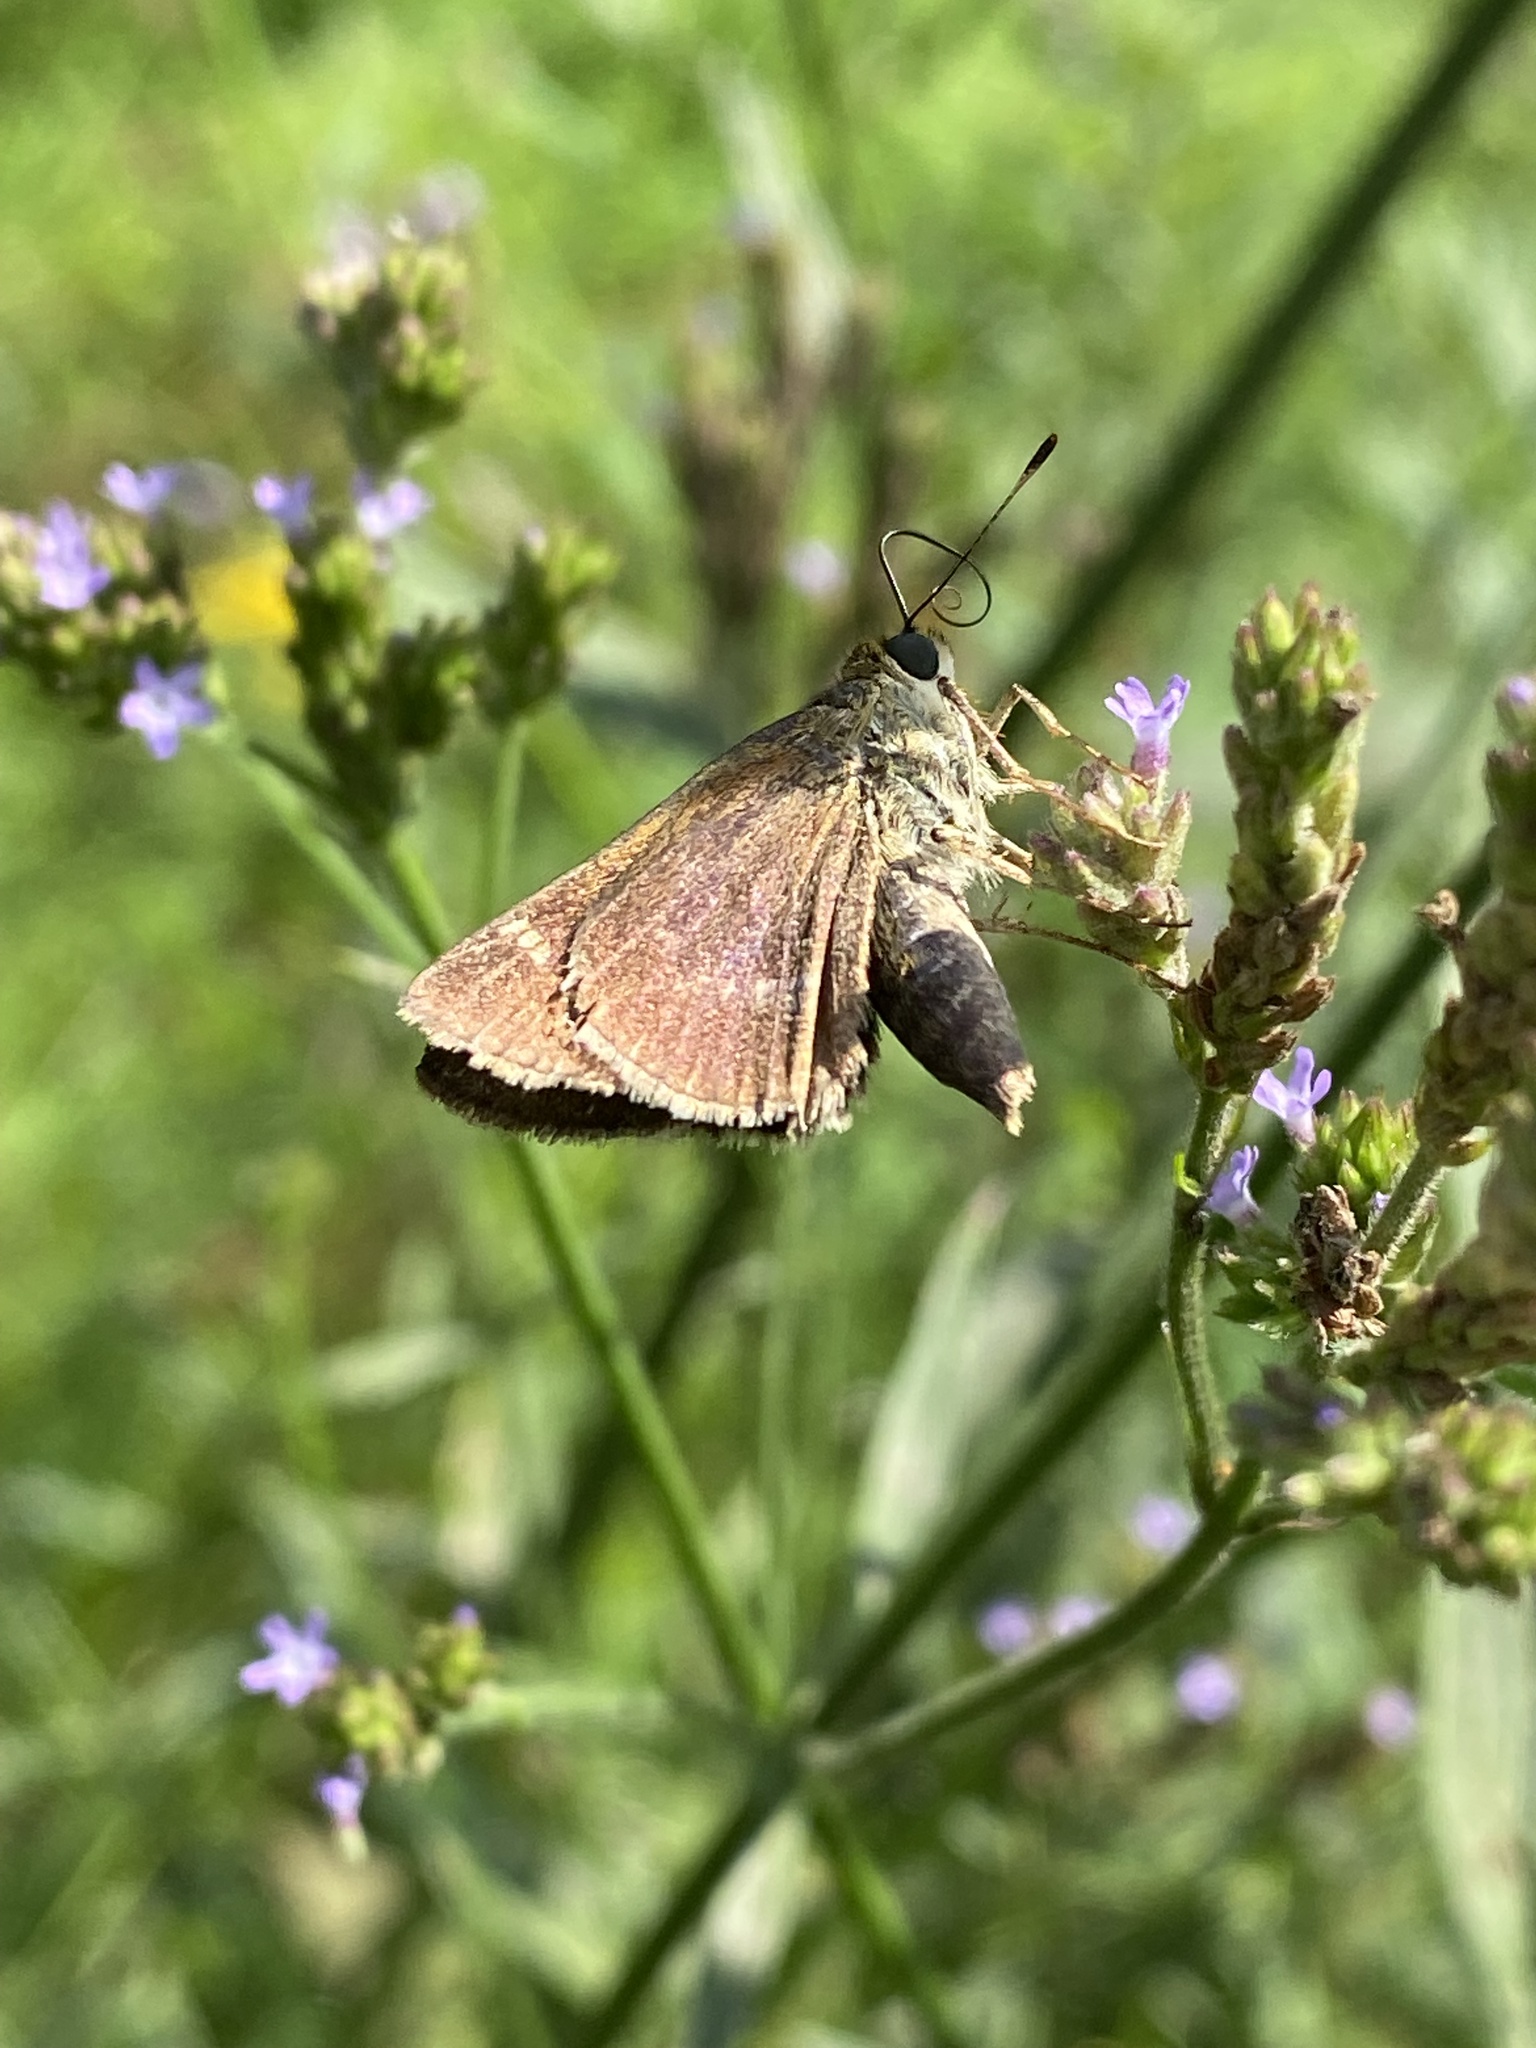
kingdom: Animalia
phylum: Arthropoda
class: Insecta
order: Lepidoptera
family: Hesperiidae
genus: Vernia
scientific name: Vernia verna
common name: Little glassywing
